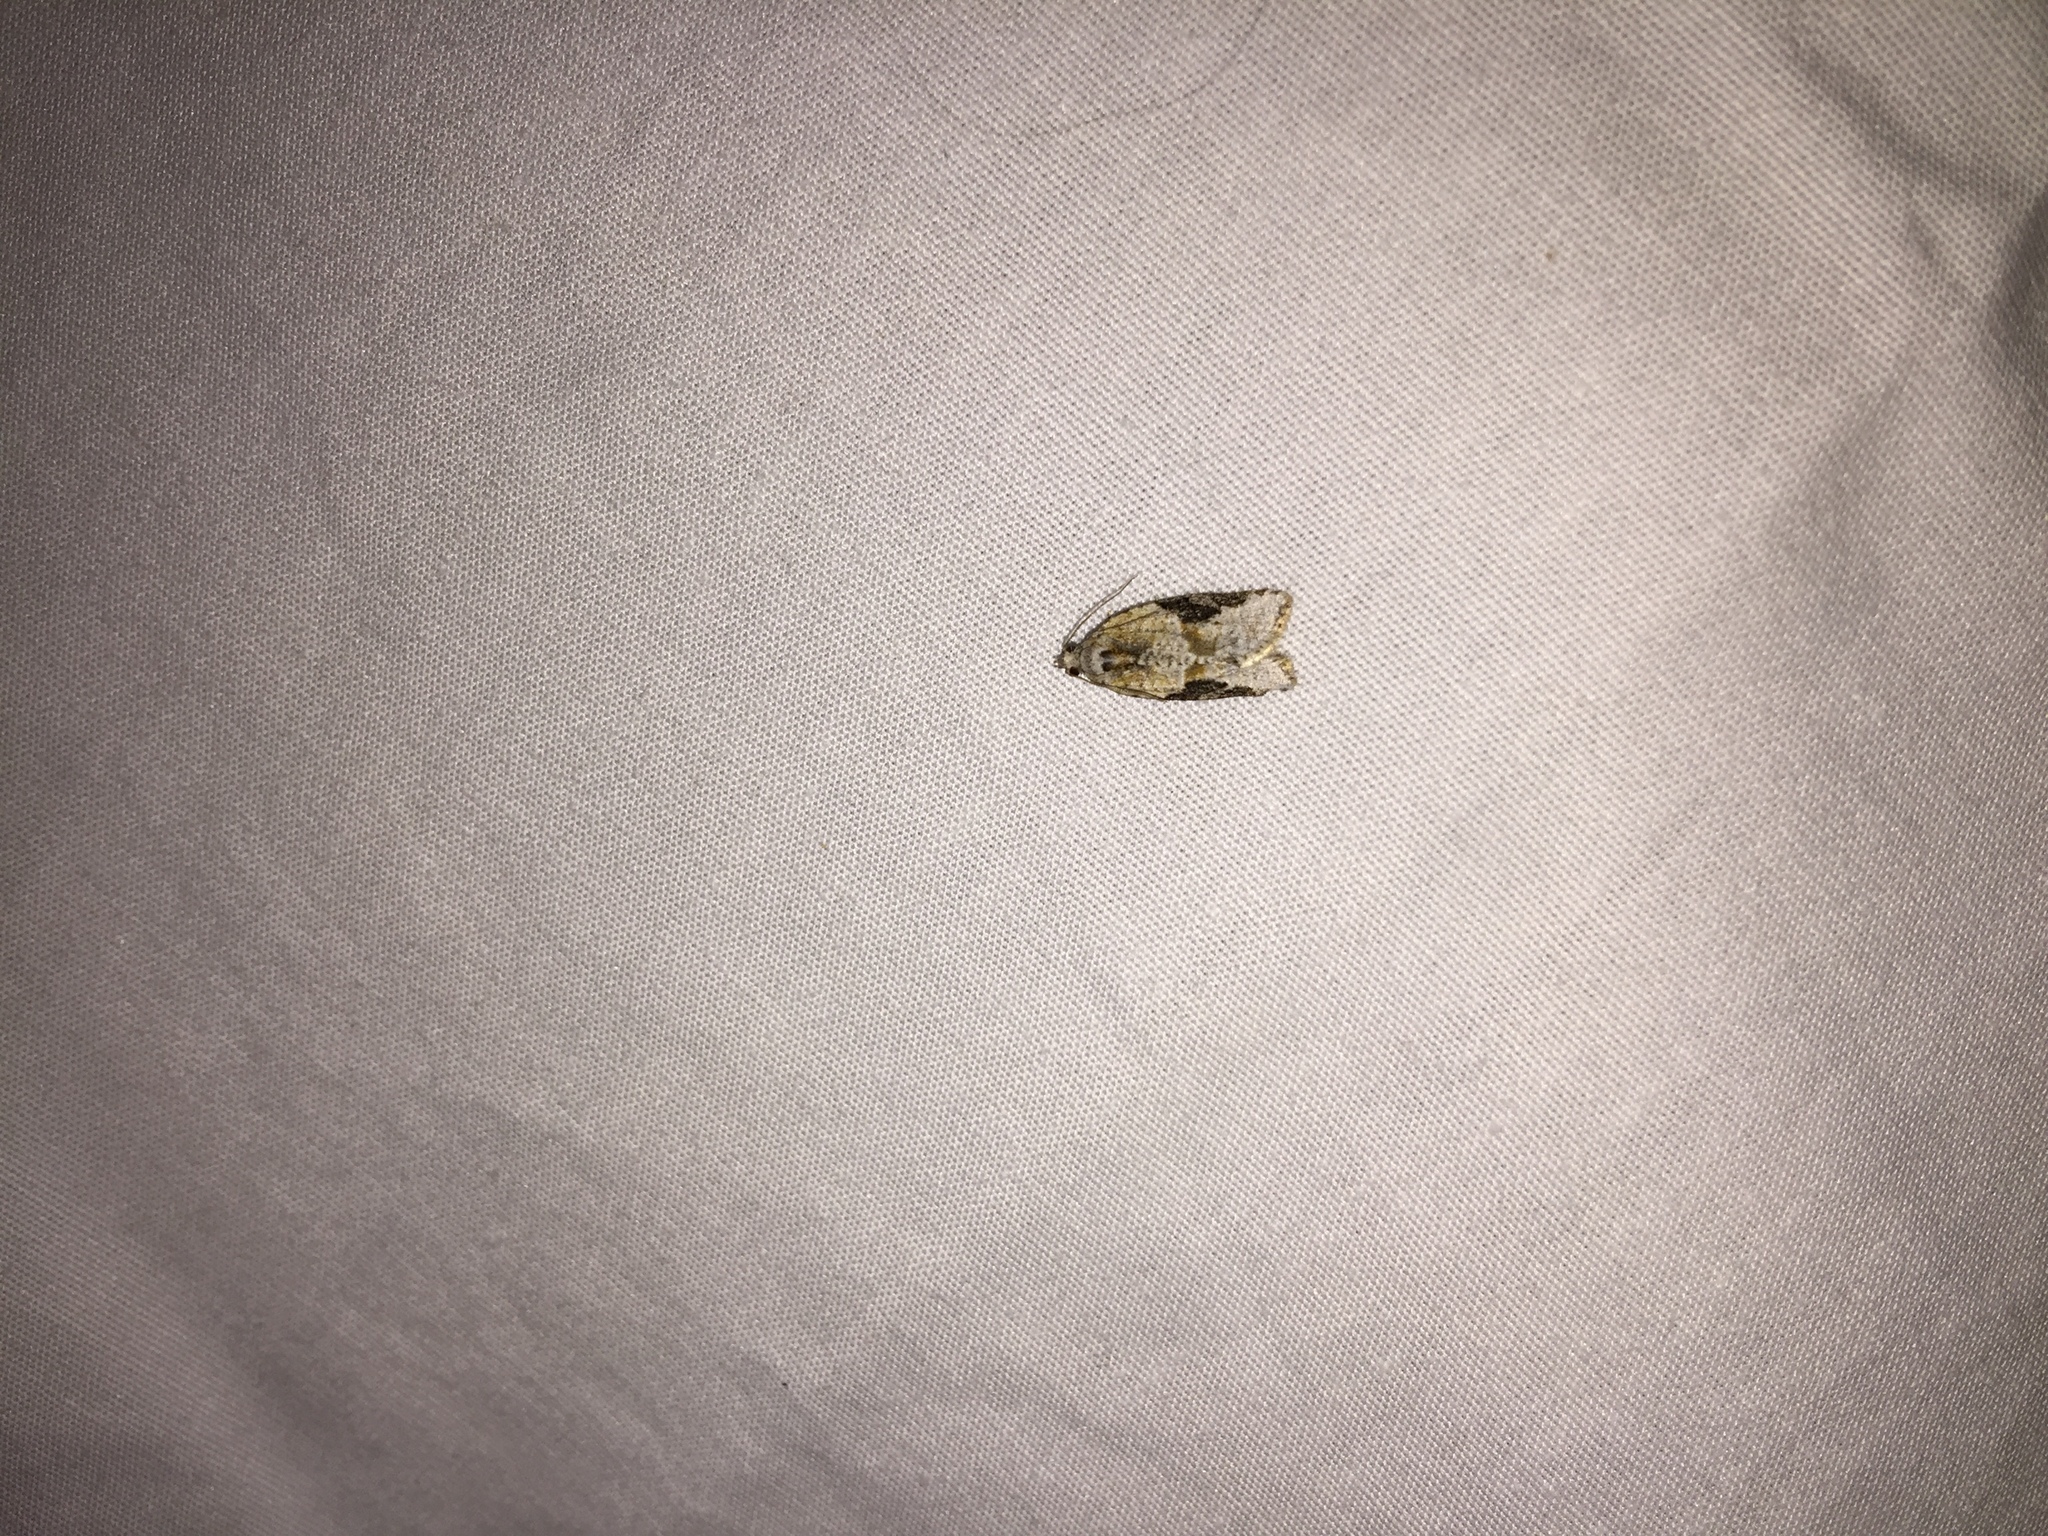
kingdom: Animalia
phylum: Arthropoda
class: Insecta
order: Lepidoptera
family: Tortricidae
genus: Argyrotaenia
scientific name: Argyrotaenia mariana
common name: Gray-banded leafroller moth
